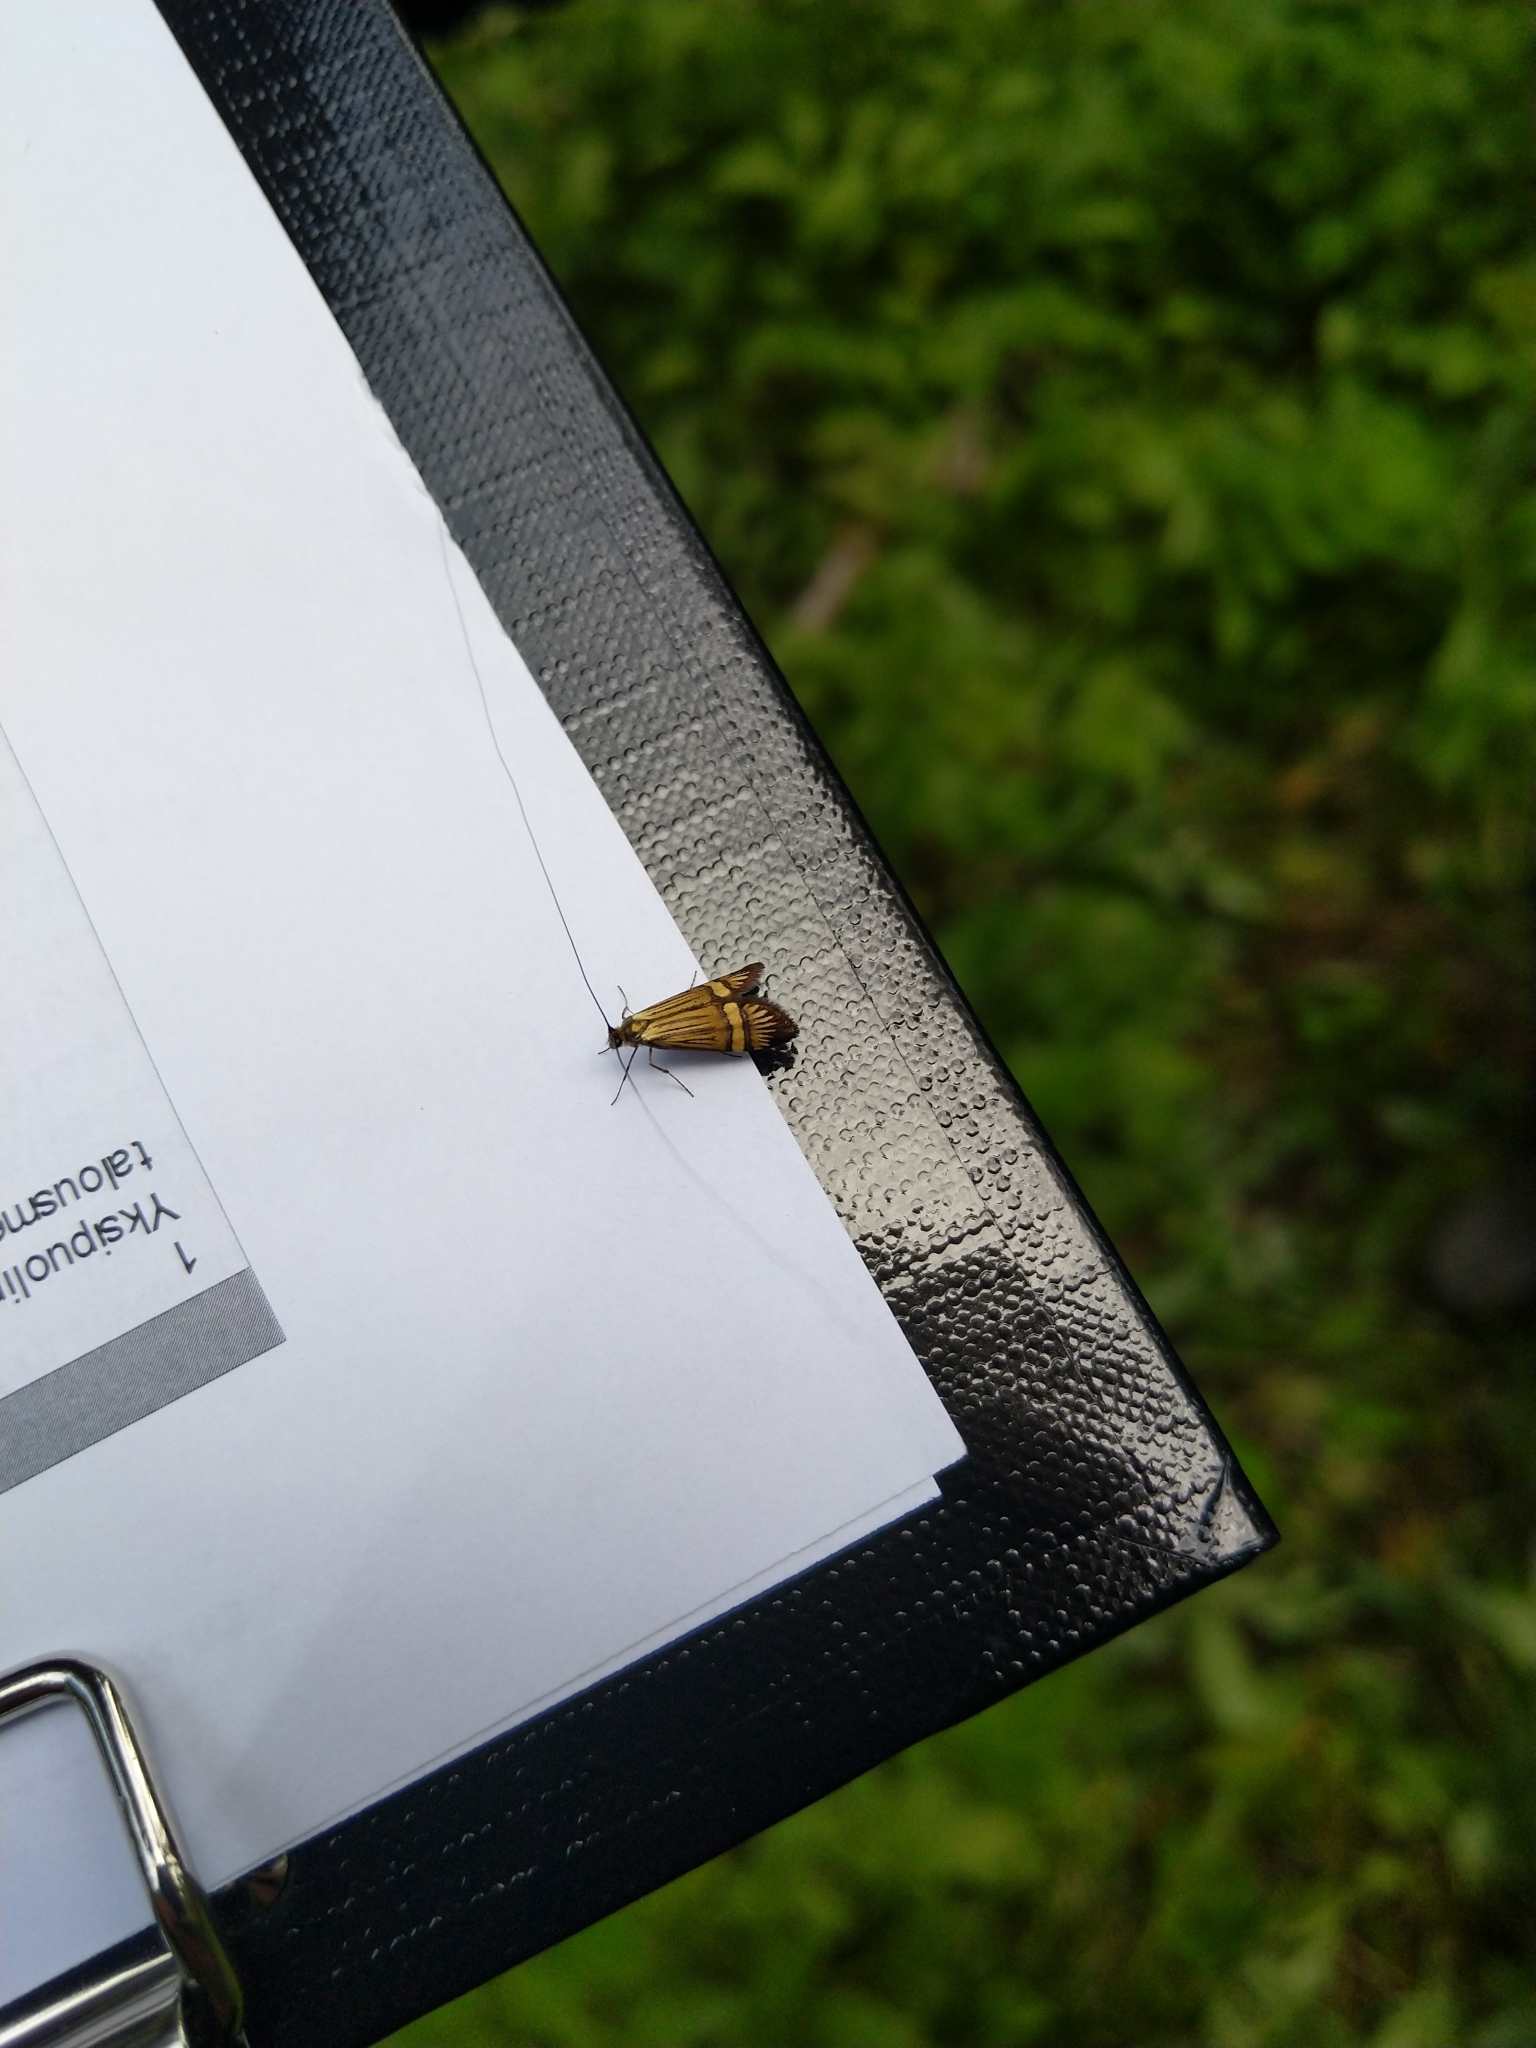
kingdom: Animalia
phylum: Arthropoda
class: Insecta
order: Lepidoptera
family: Adelidae
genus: Nemophora
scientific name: Nemophora degeerella
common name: Yellow-barred long-horn
